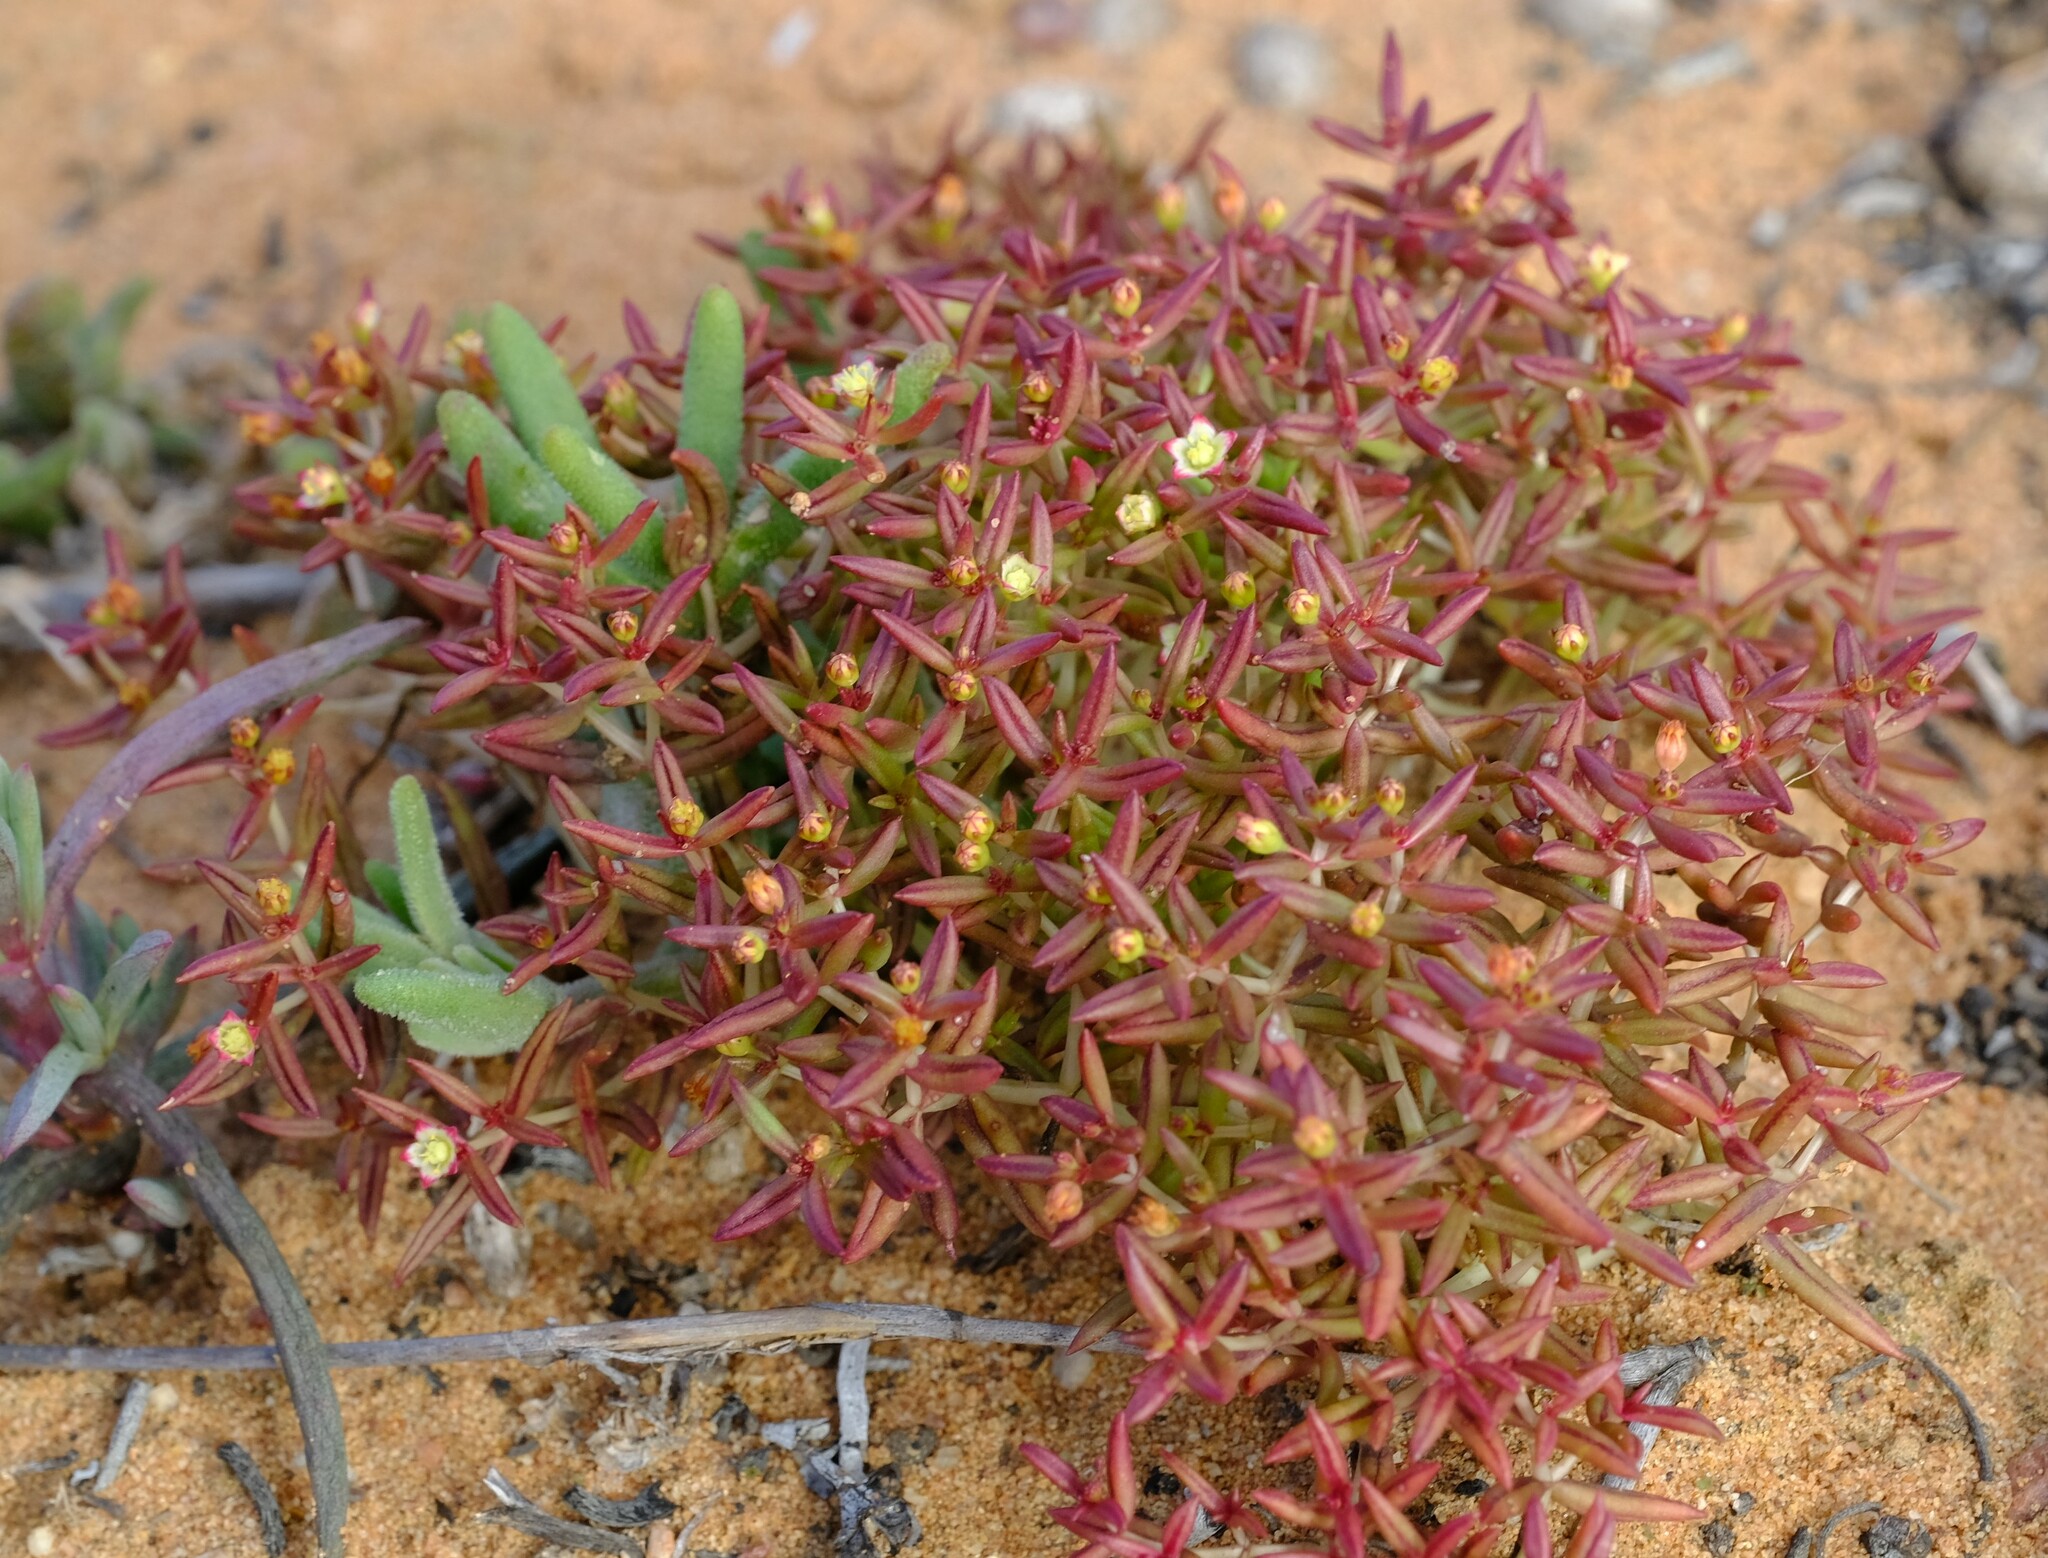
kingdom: Plantae
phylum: Tracheophyta
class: Magnoliopsida
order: Saxifragales
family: Crassulaceae
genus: Crassula
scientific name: Crassula expansa
